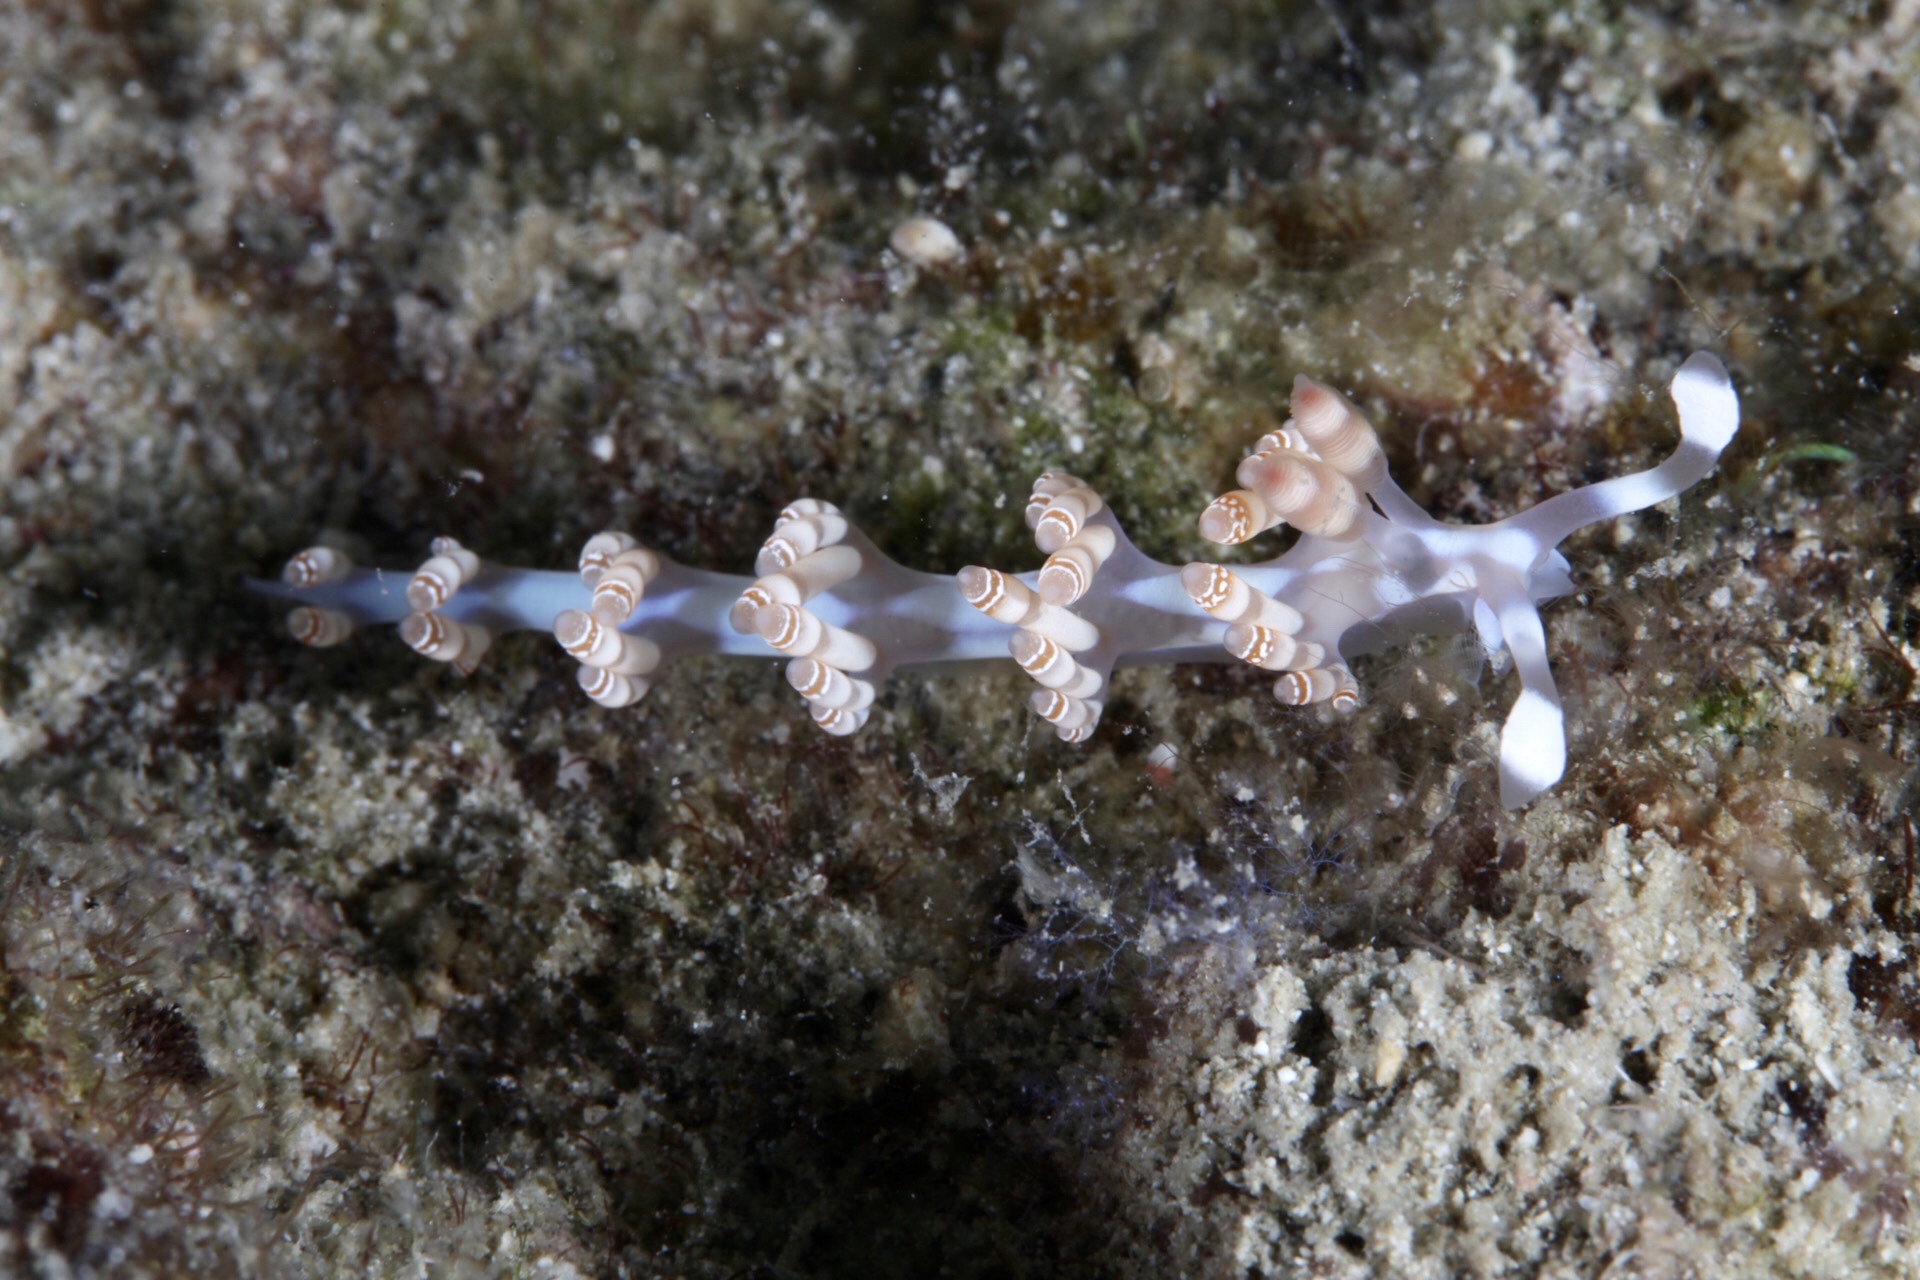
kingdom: Animalia
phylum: Mollusca
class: Gastropoda
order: Nudibranchia
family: Samlidae
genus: Samla
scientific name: Samla bilas
